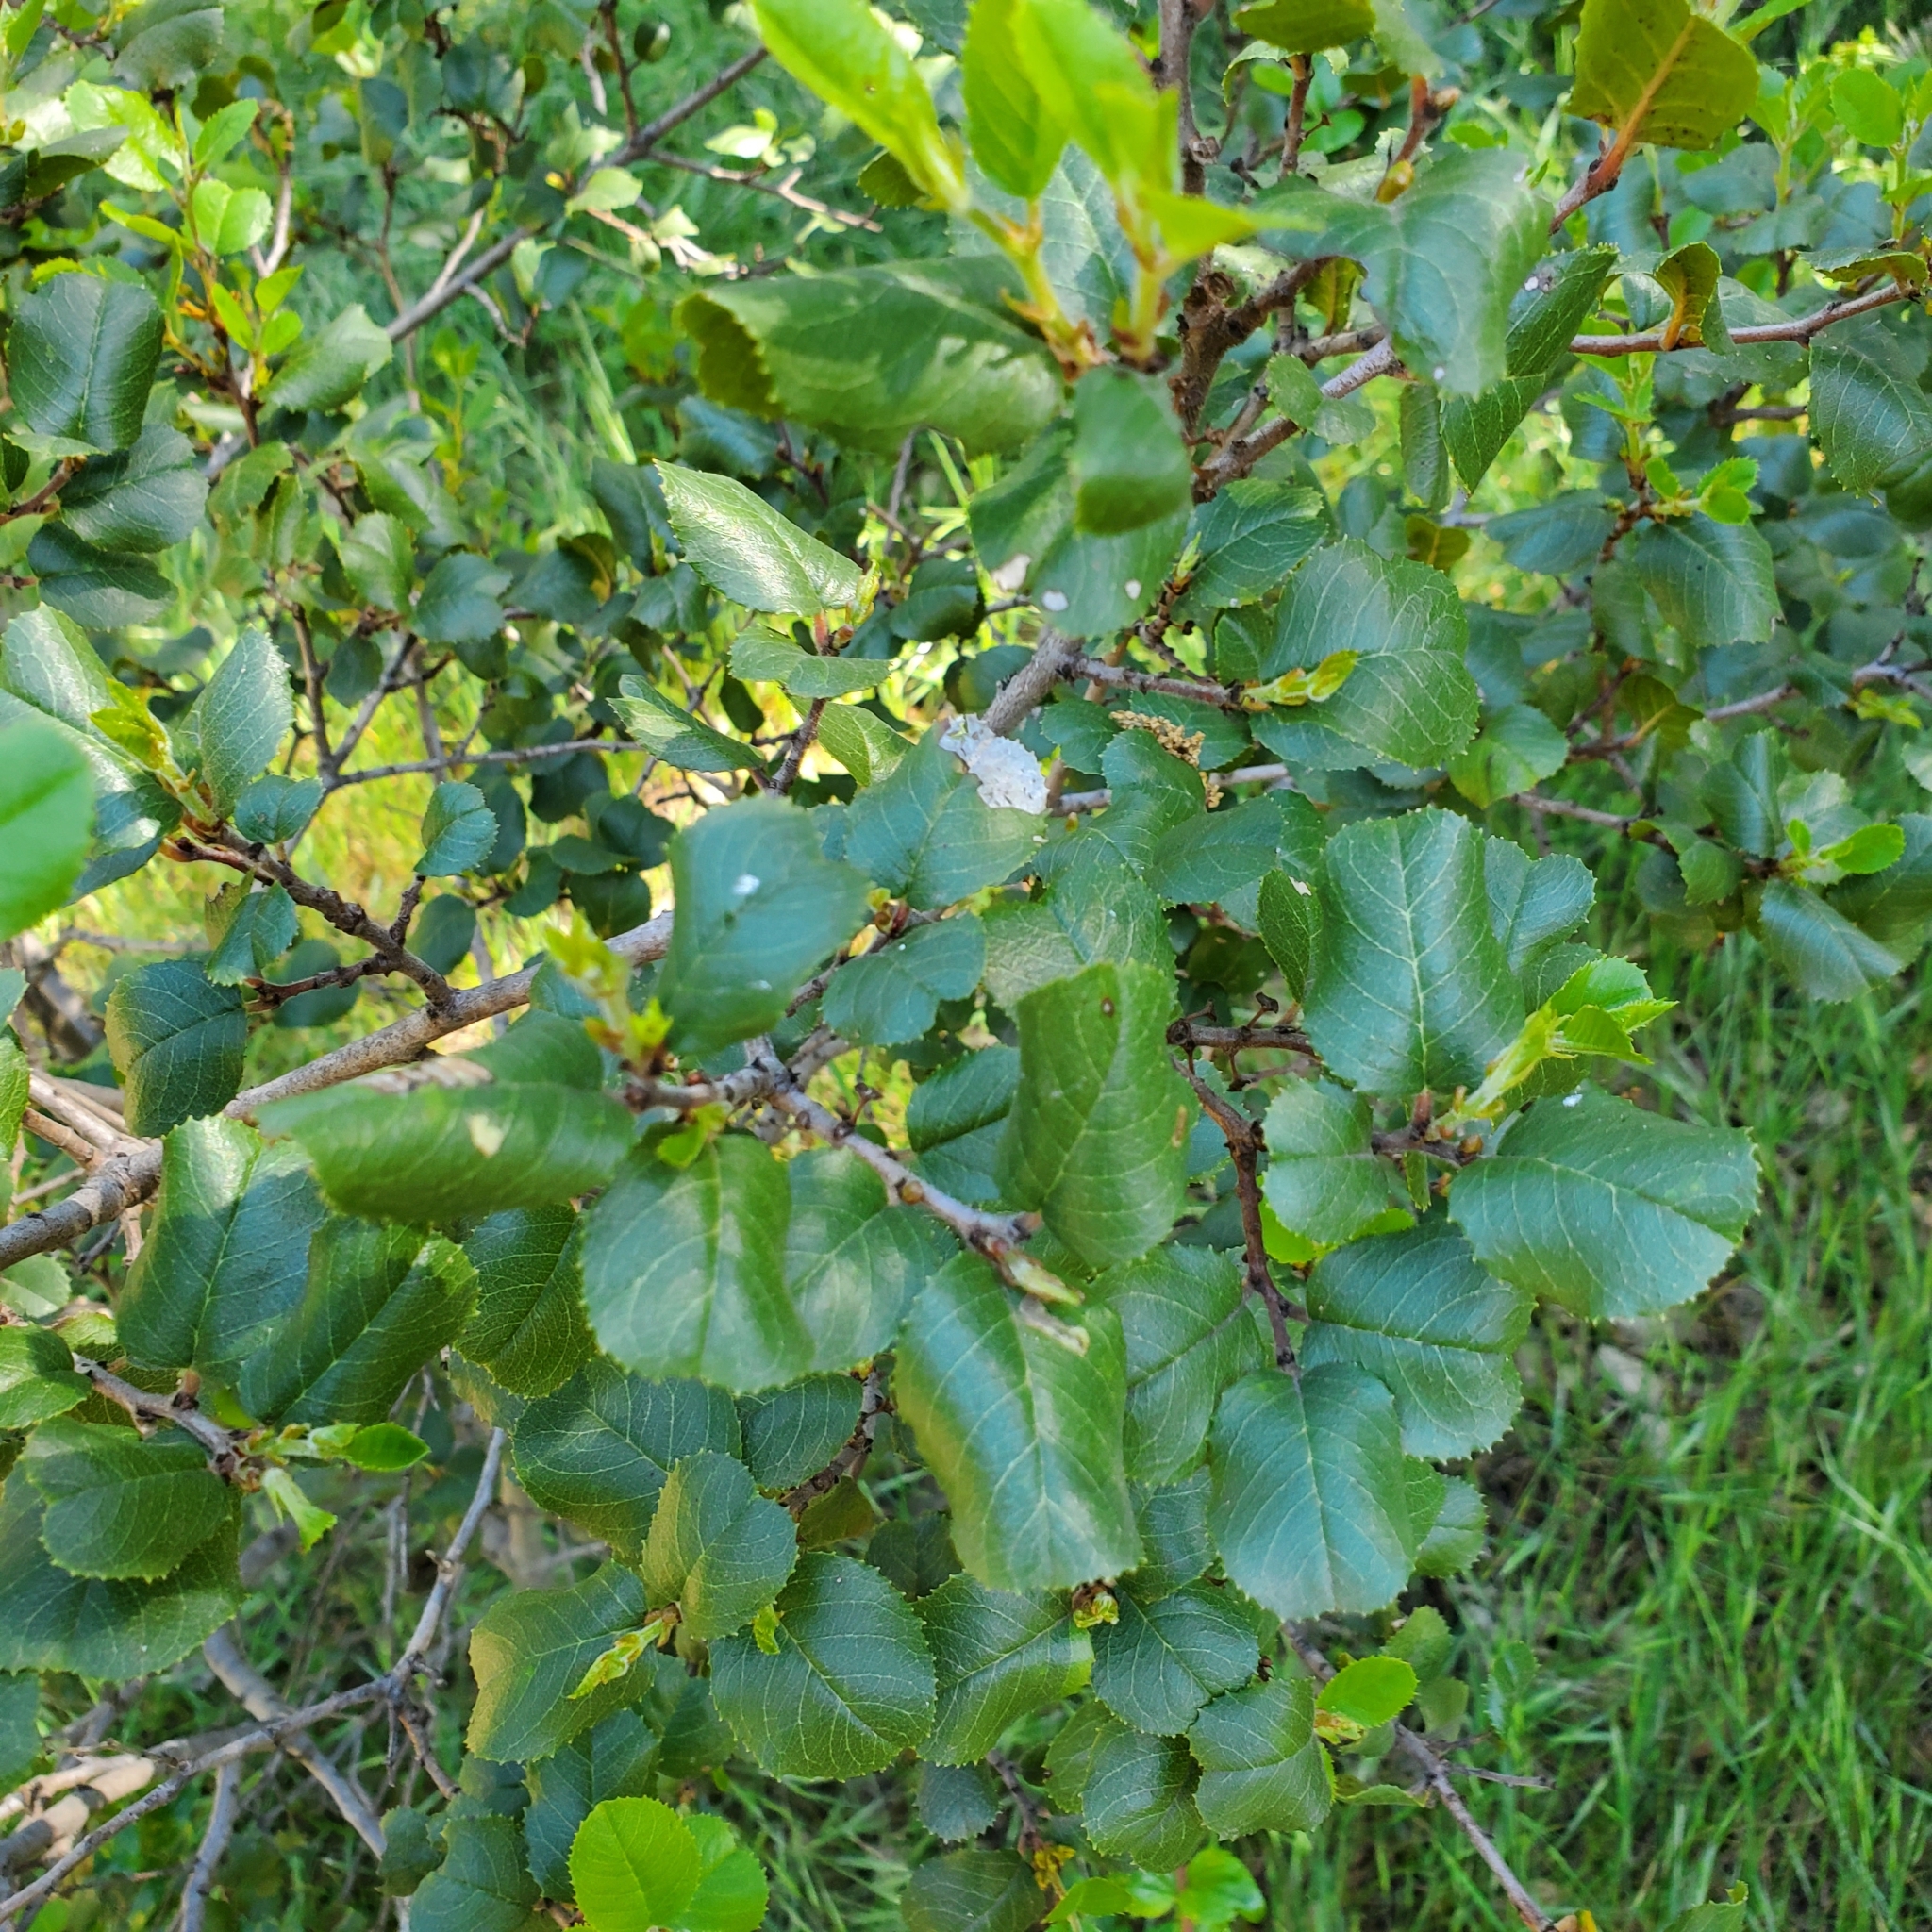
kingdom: Plantae
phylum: Tracheophyta
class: Magnoliopsida
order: Rosales
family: Rhamnaceae
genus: Endotropis
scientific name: Endotropis crocea
